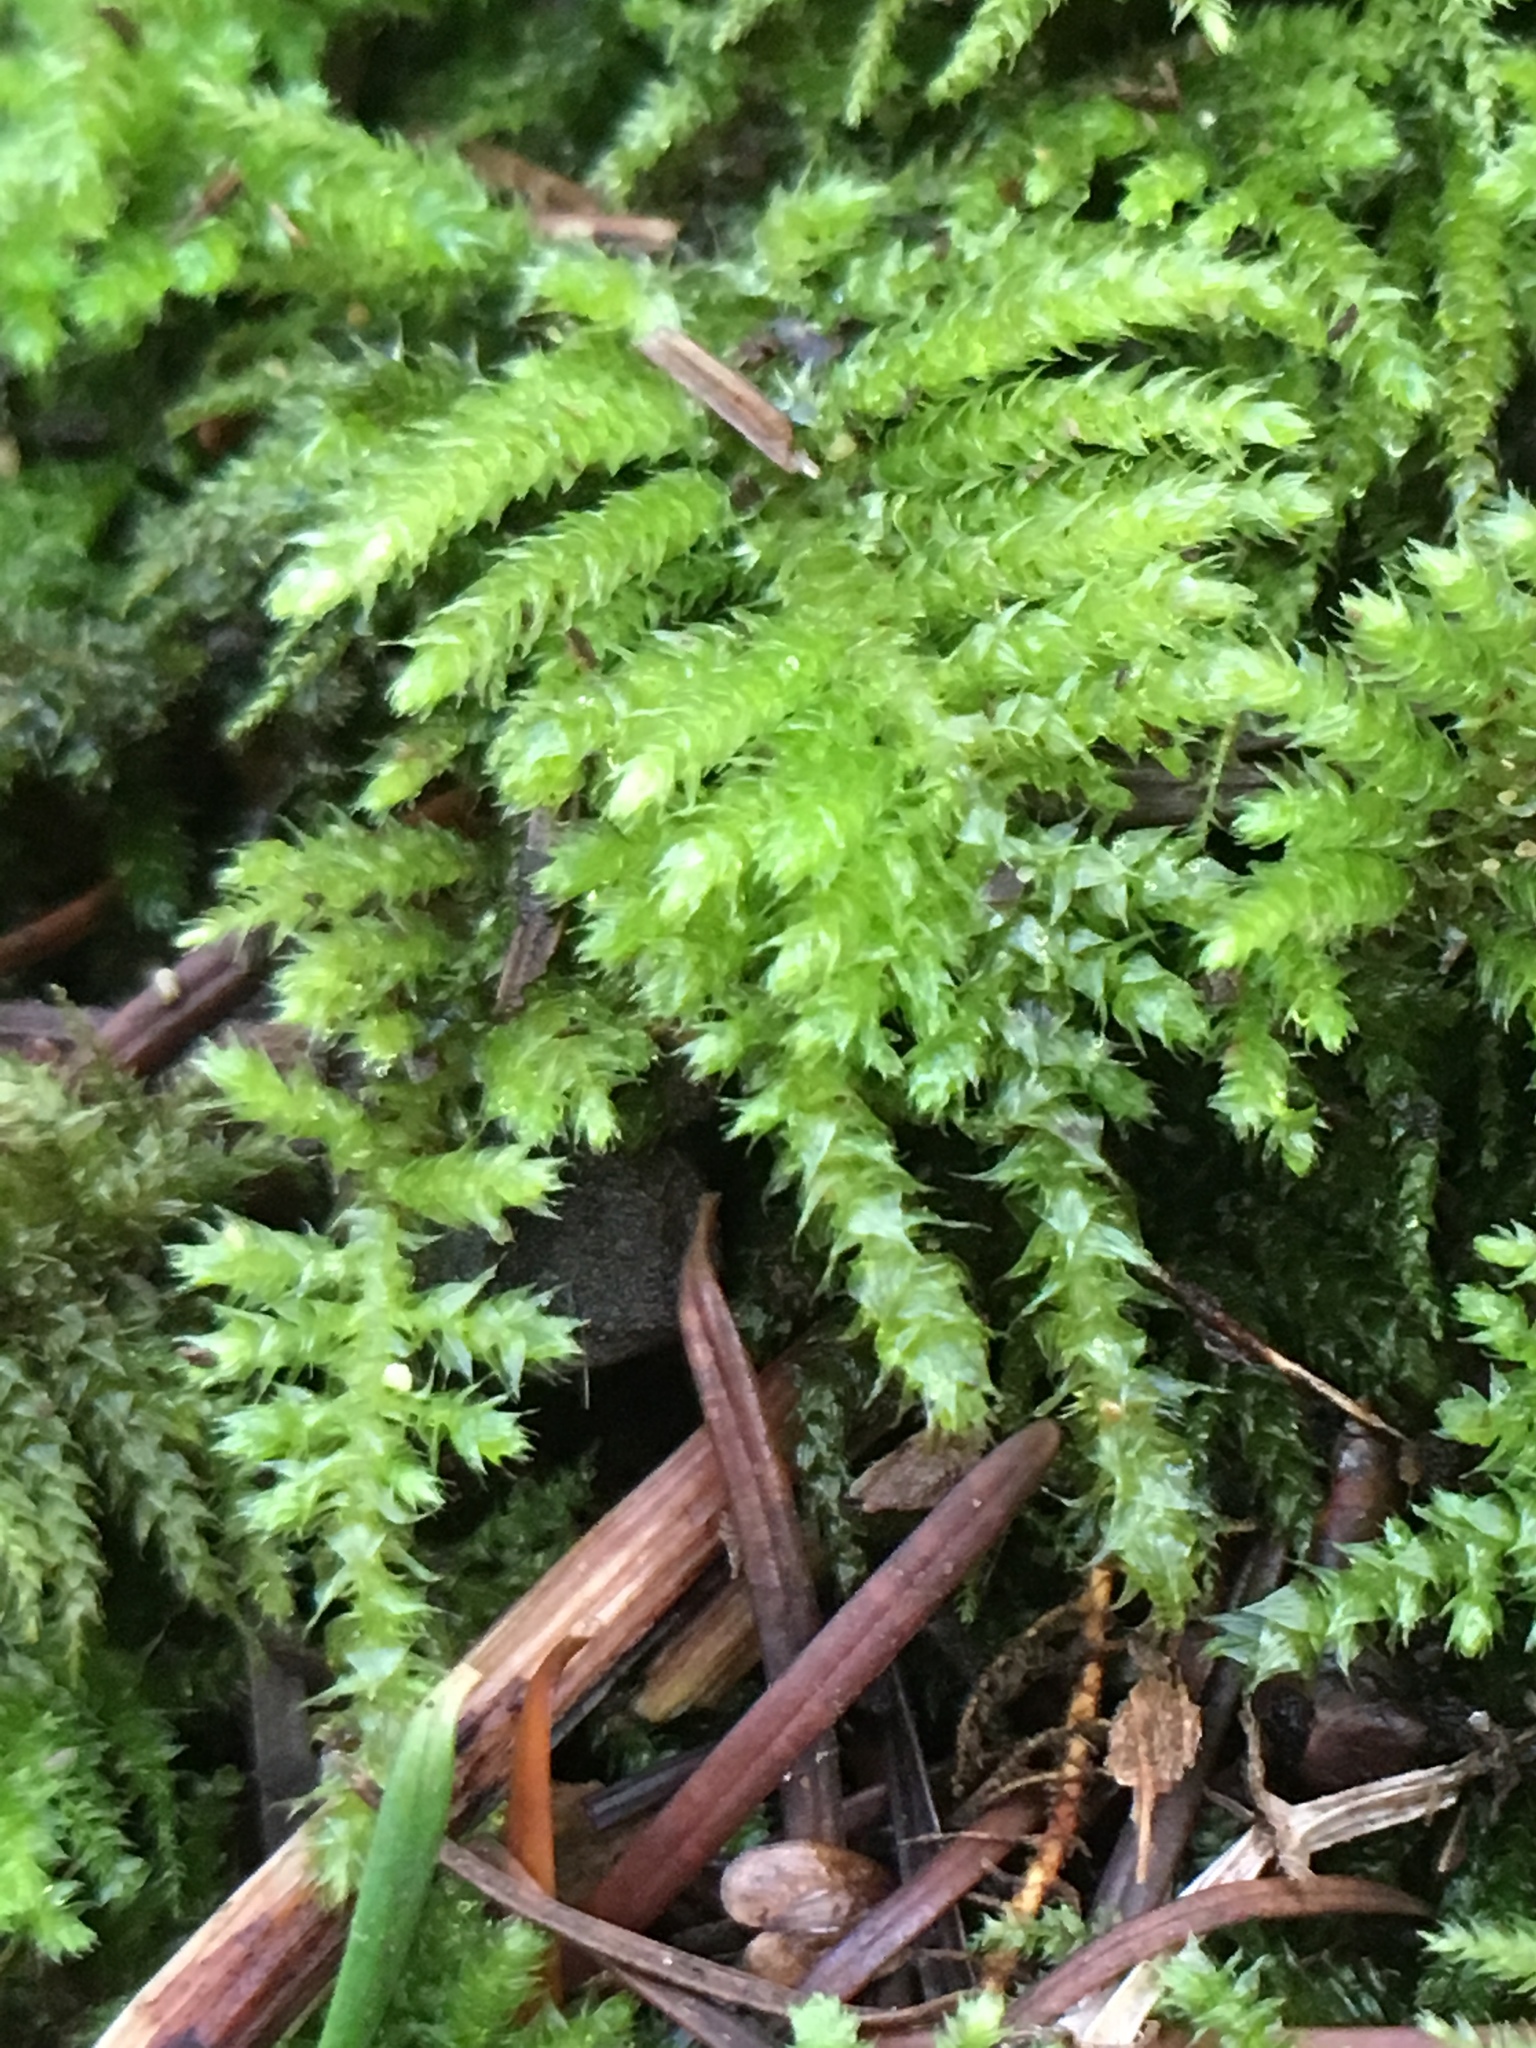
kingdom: Plantae
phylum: Bryophyta
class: Bryopsida
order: Hypnales
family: Brachytheciaceae
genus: Kindbergia
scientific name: Kindbergia oregana
